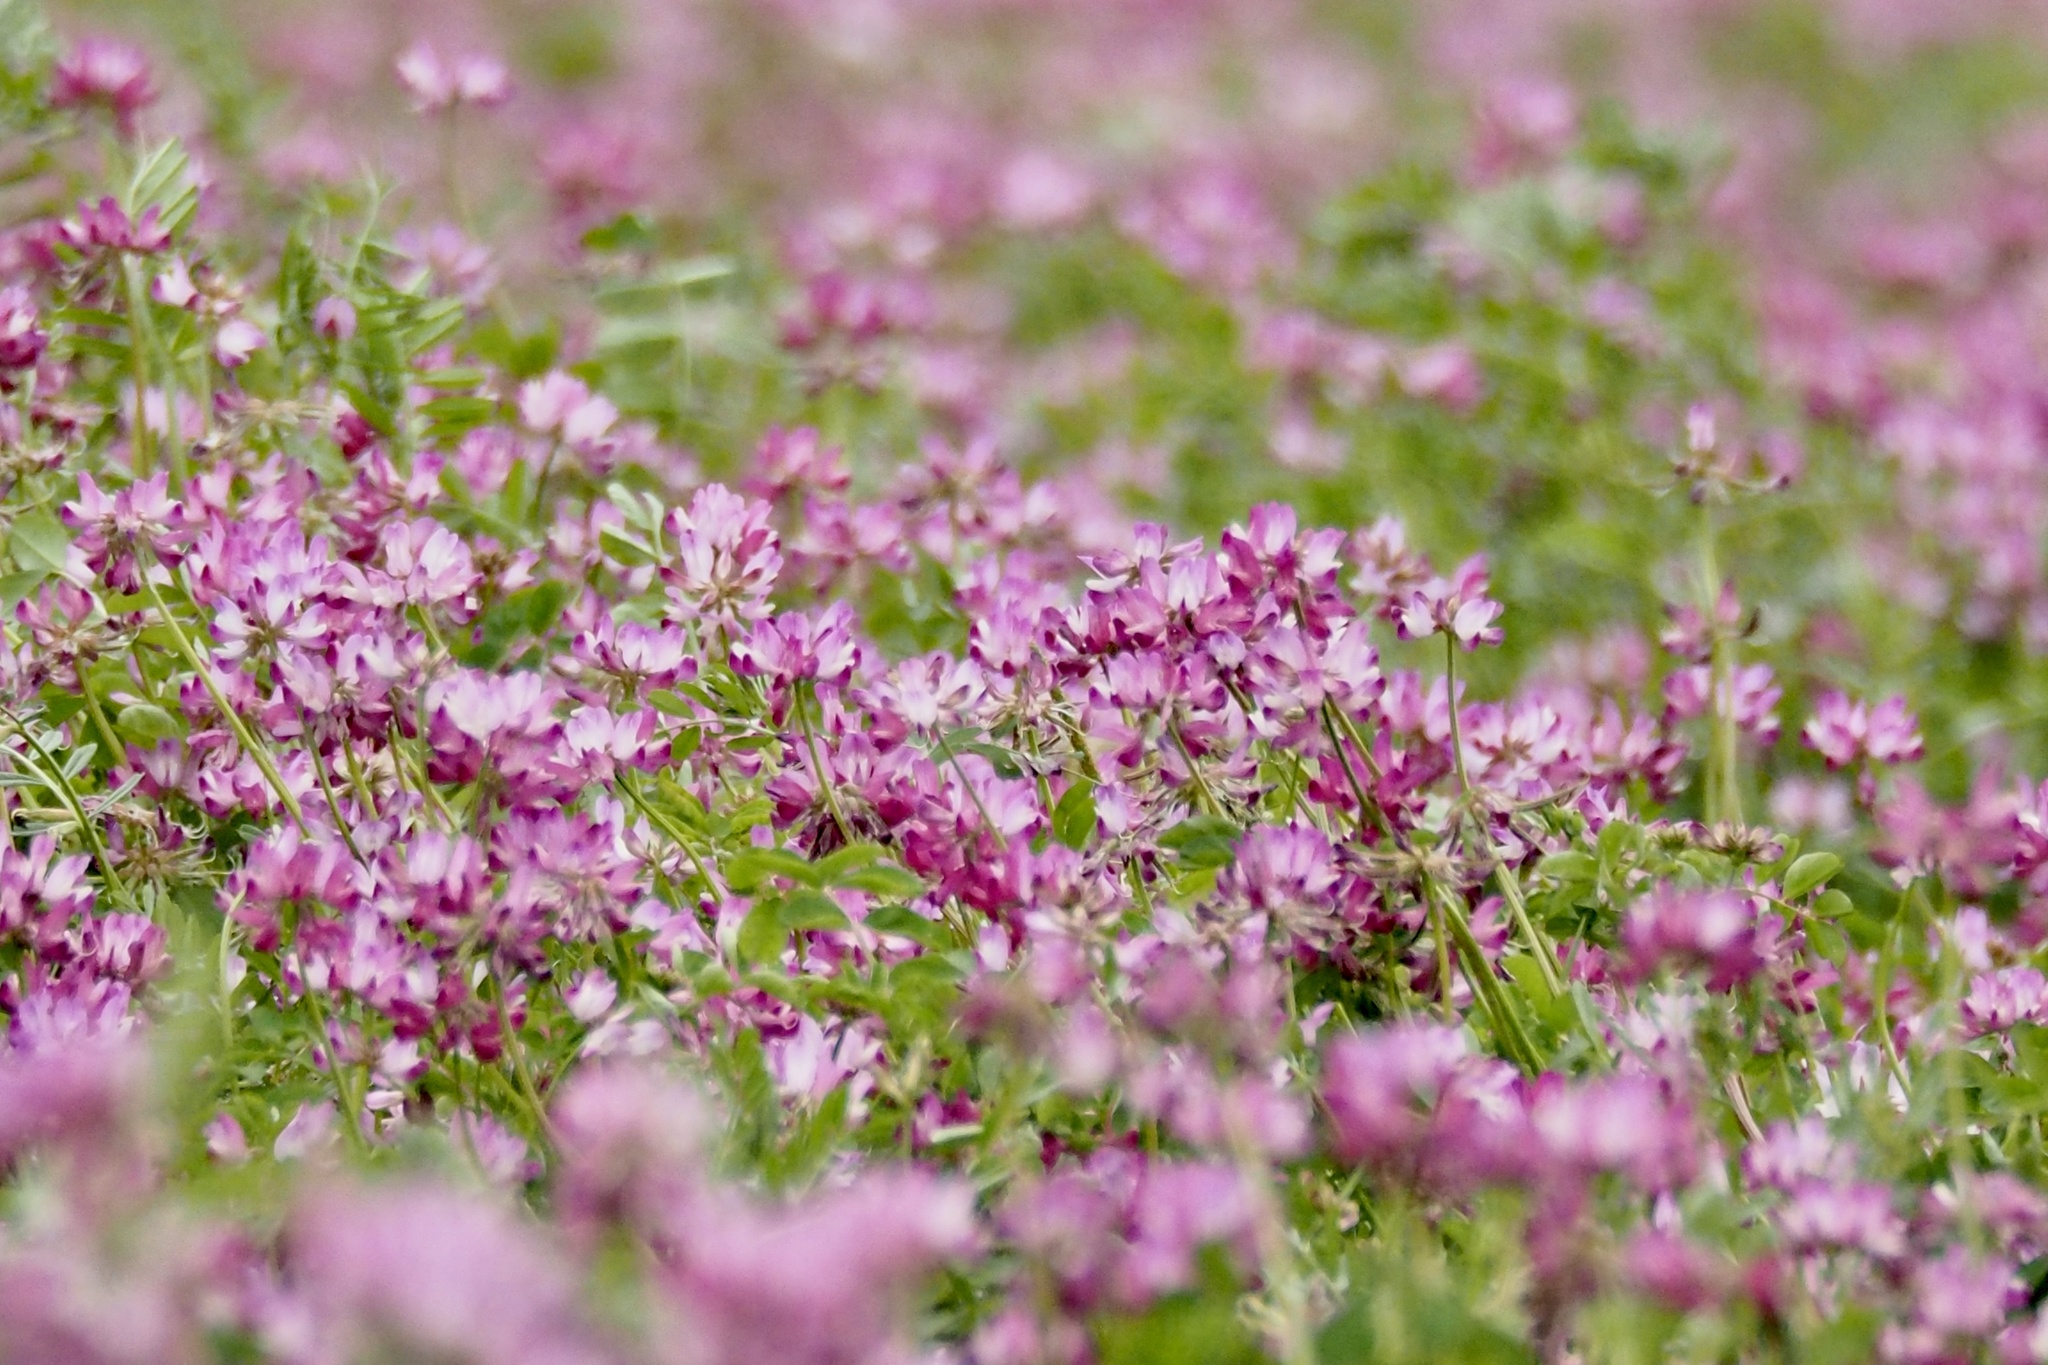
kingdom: Plantae
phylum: Tracheophyta
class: Magnoliopsida
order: Fabales
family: Fabaceae
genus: Astragalus
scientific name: Astragalus sinicus
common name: Chinese milk-vetch
